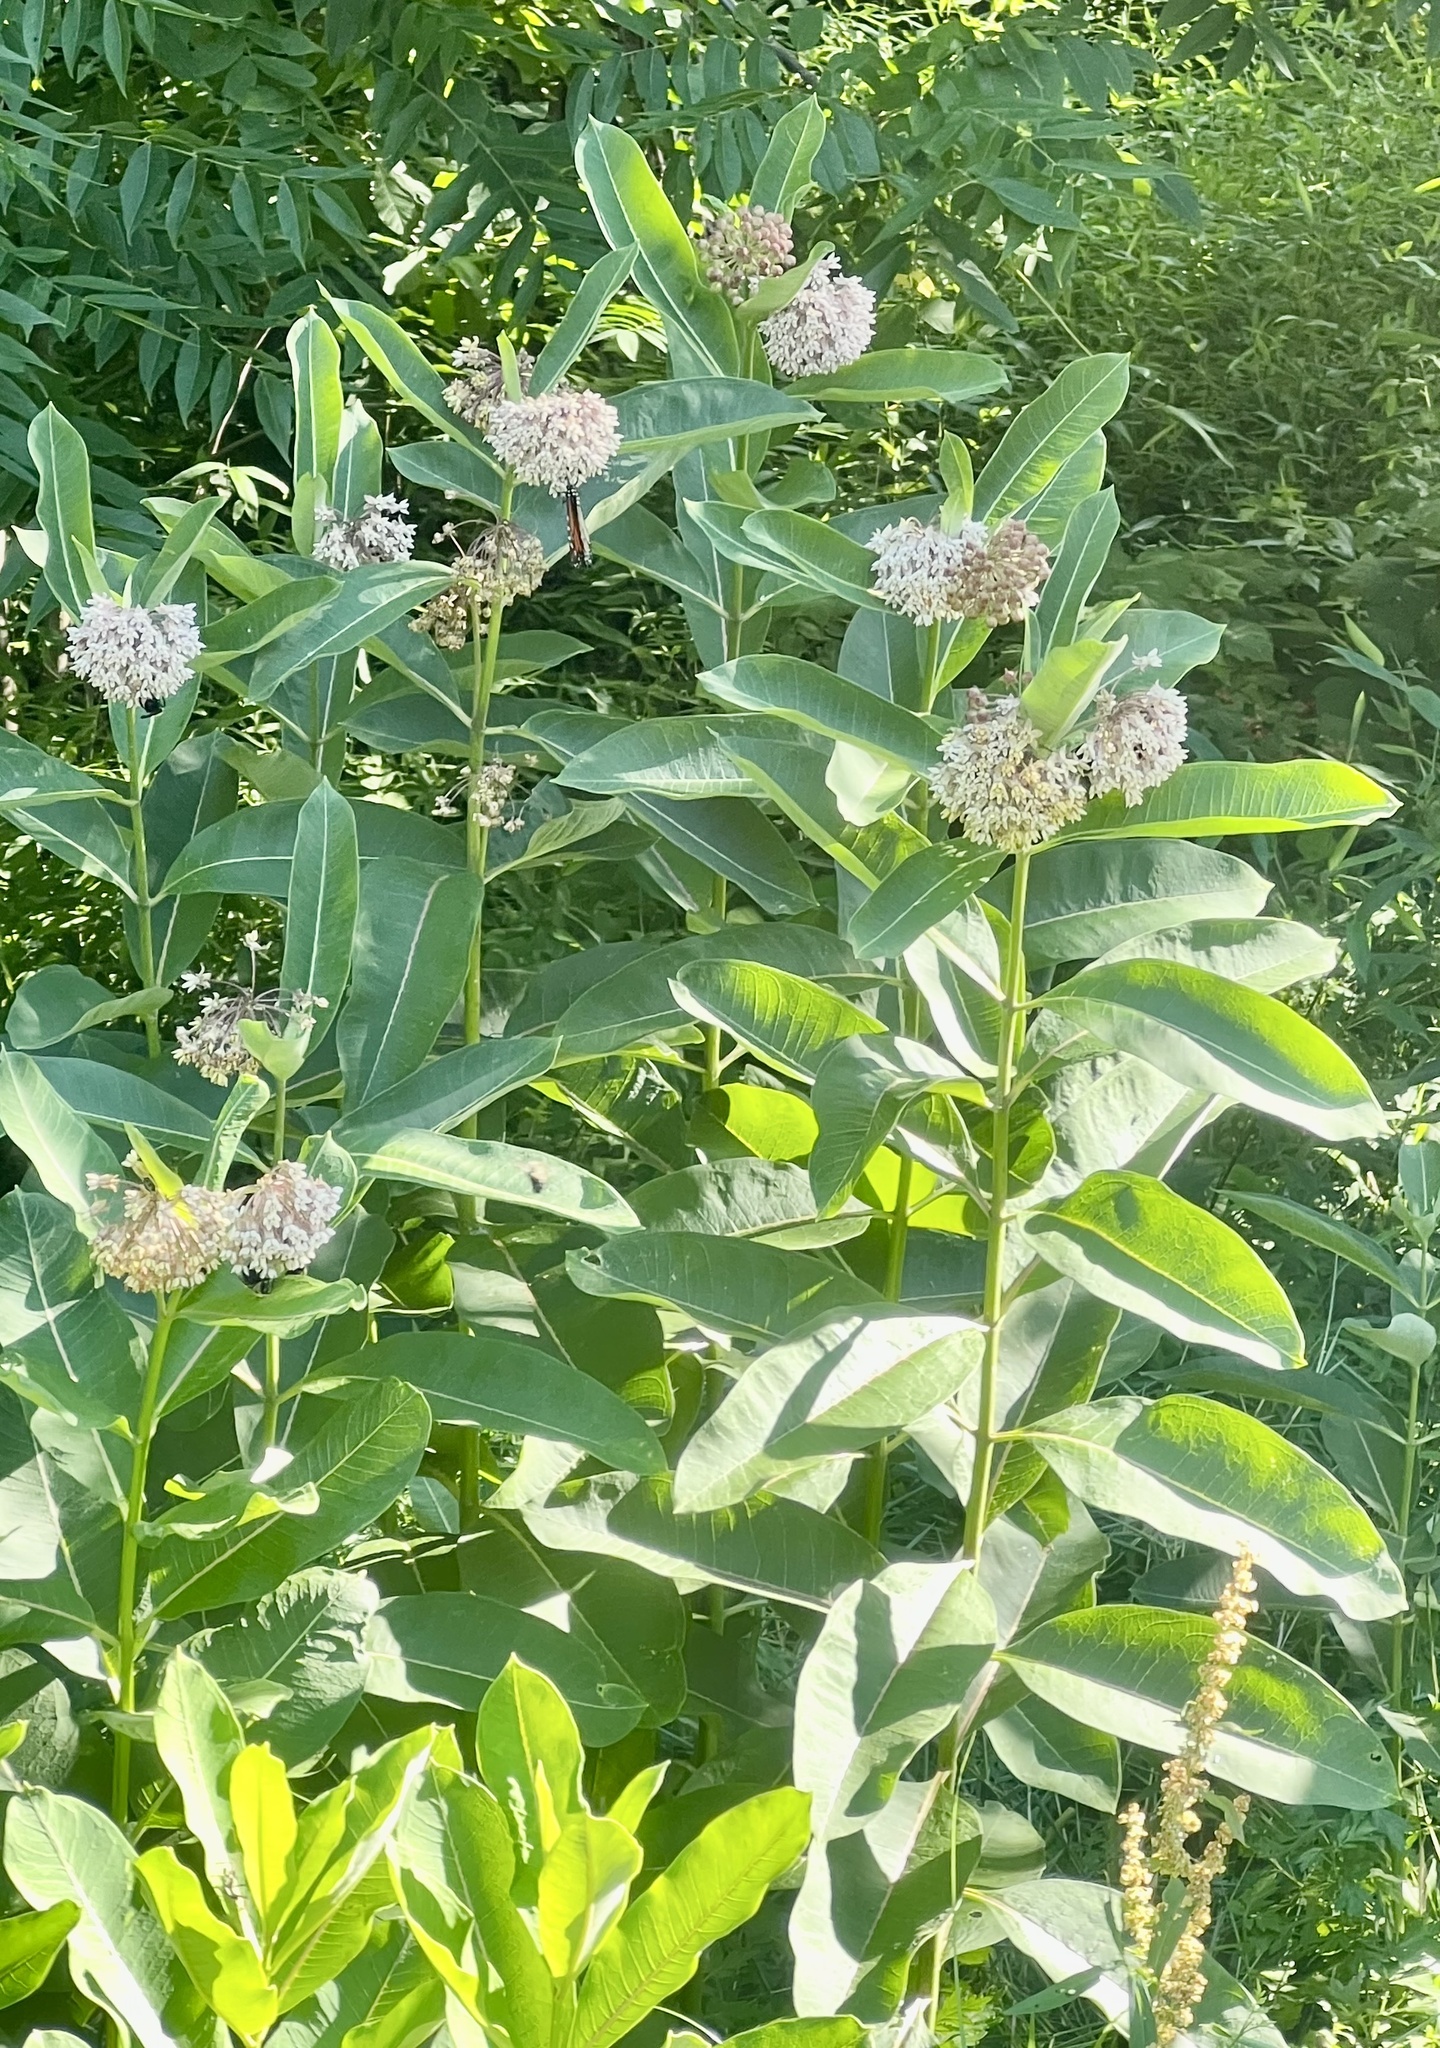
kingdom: Plantae
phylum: Tracheophyta
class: Magnoliopsida
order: Gentianales
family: Apocynaceae
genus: Asclepias
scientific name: Asclepias syriaca
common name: Common milkweed
